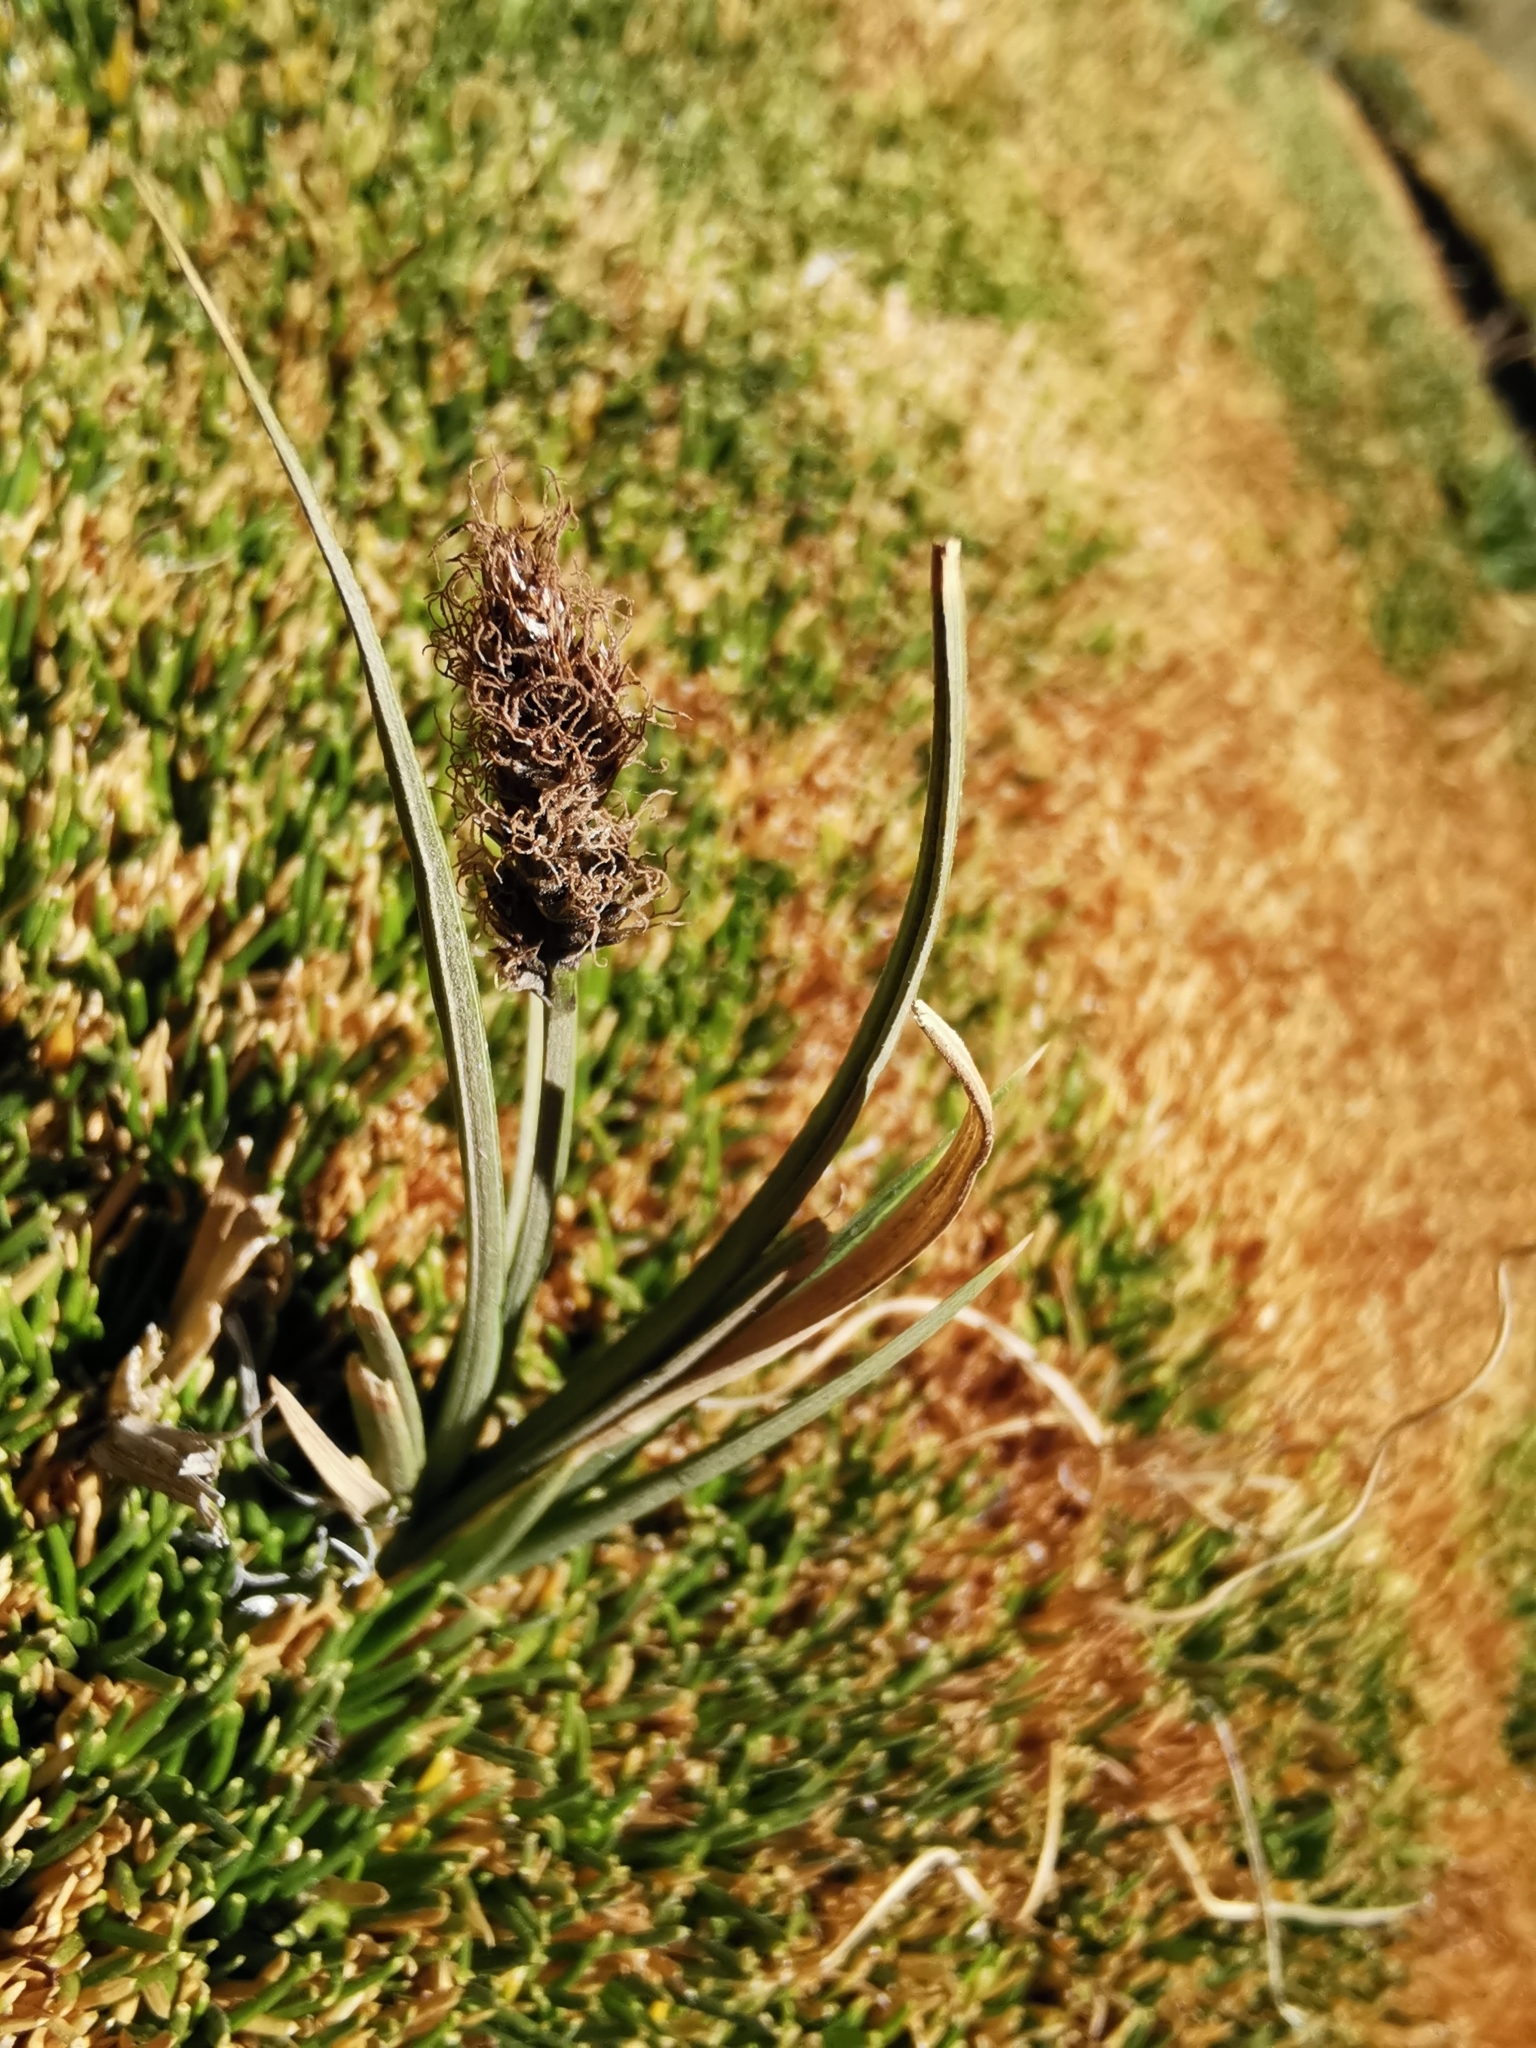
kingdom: Plantae
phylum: Tracheophyta
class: Liliopsida
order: Poales
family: Cyperaceae
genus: Carex
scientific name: Carex gayana
